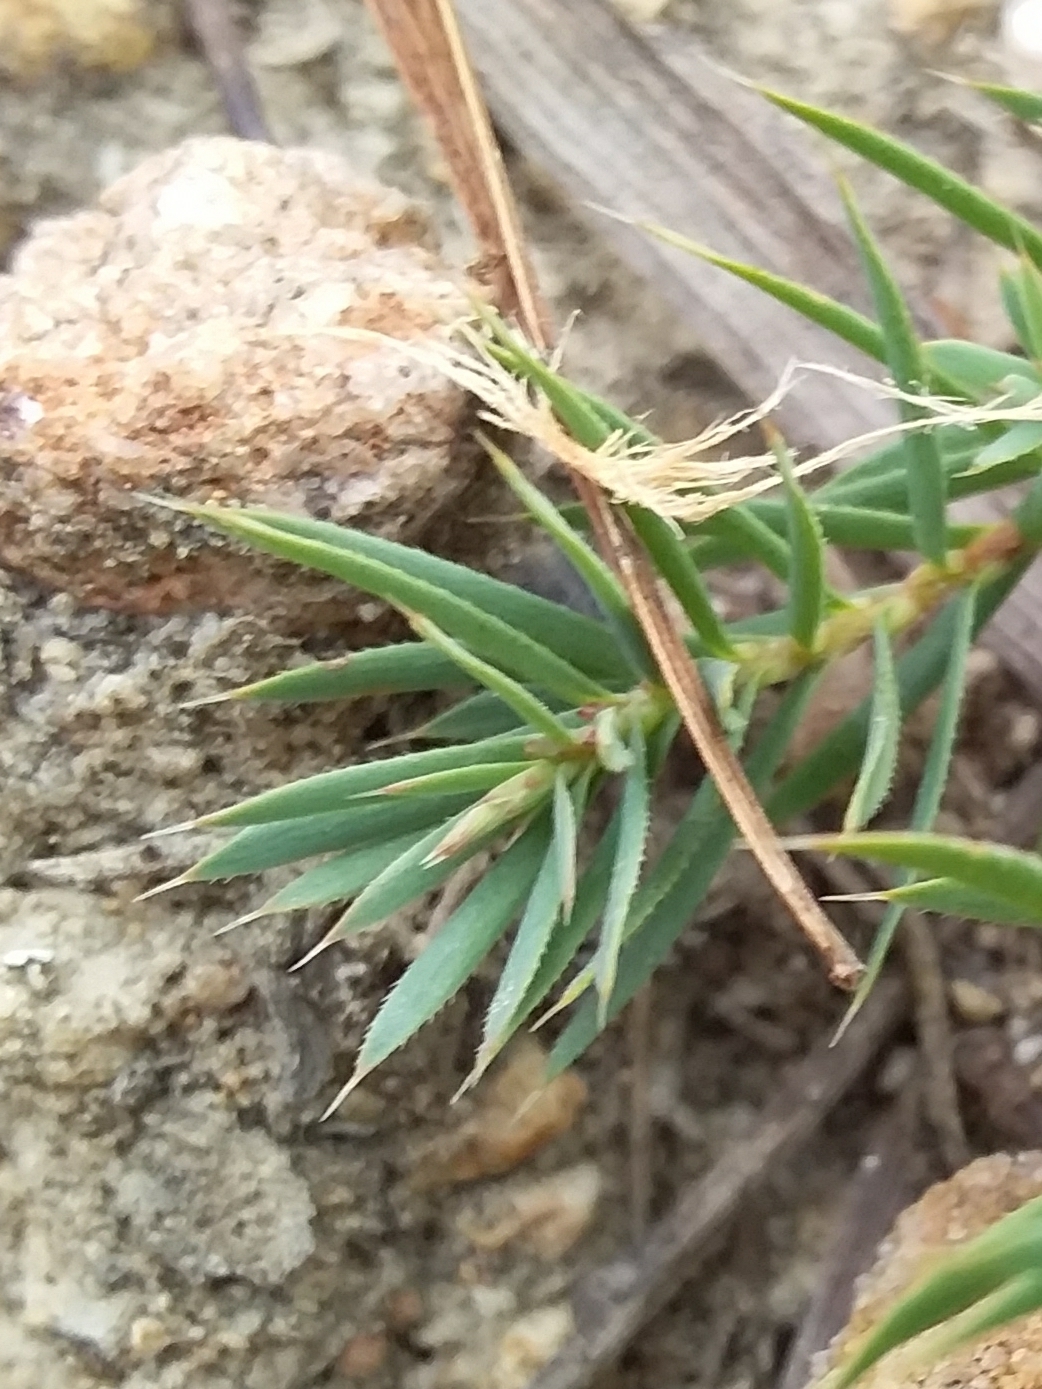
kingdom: Plantae
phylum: Tracheophyta
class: Magnoliopsida
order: Ericales
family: Ericaceae
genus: Styphelia
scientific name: Styphelia humifusa
